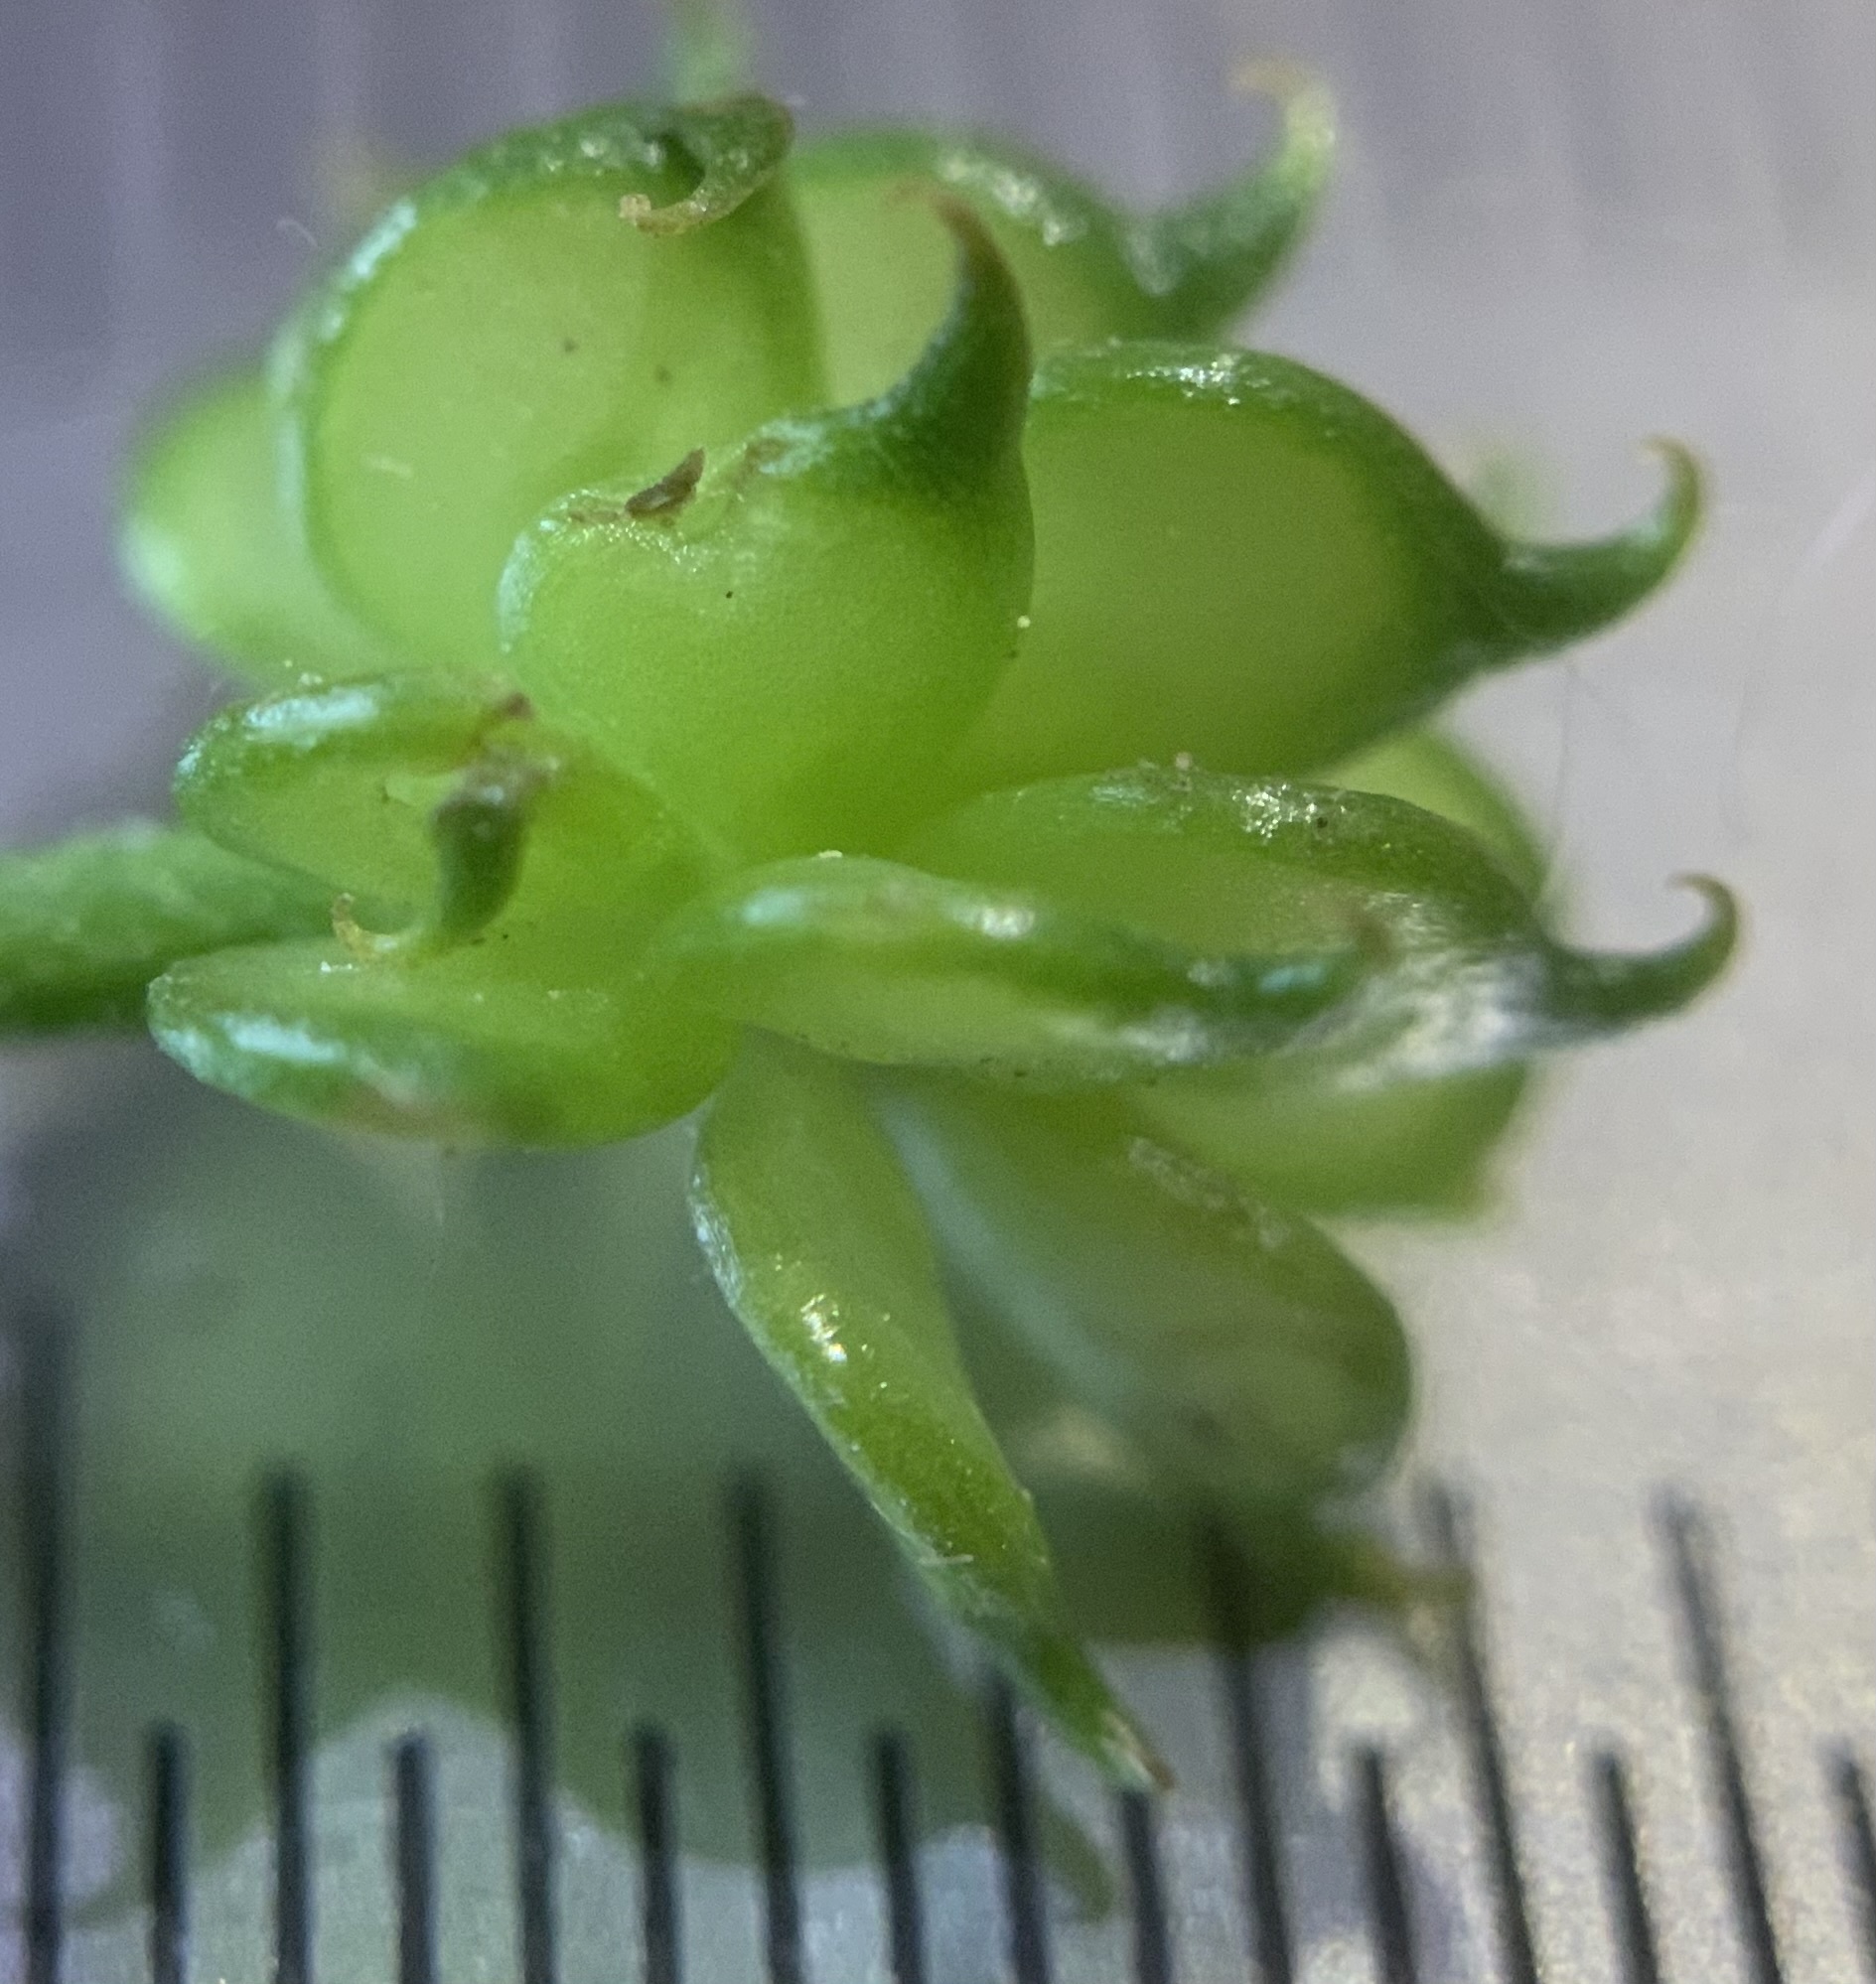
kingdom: Plantae
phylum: Tracheophyta
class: Magnoliopsida
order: Ranunculales
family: Ranunculaceae
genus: Ranunculus
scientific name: Ranunculus uncinatus
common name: Little buttercup
